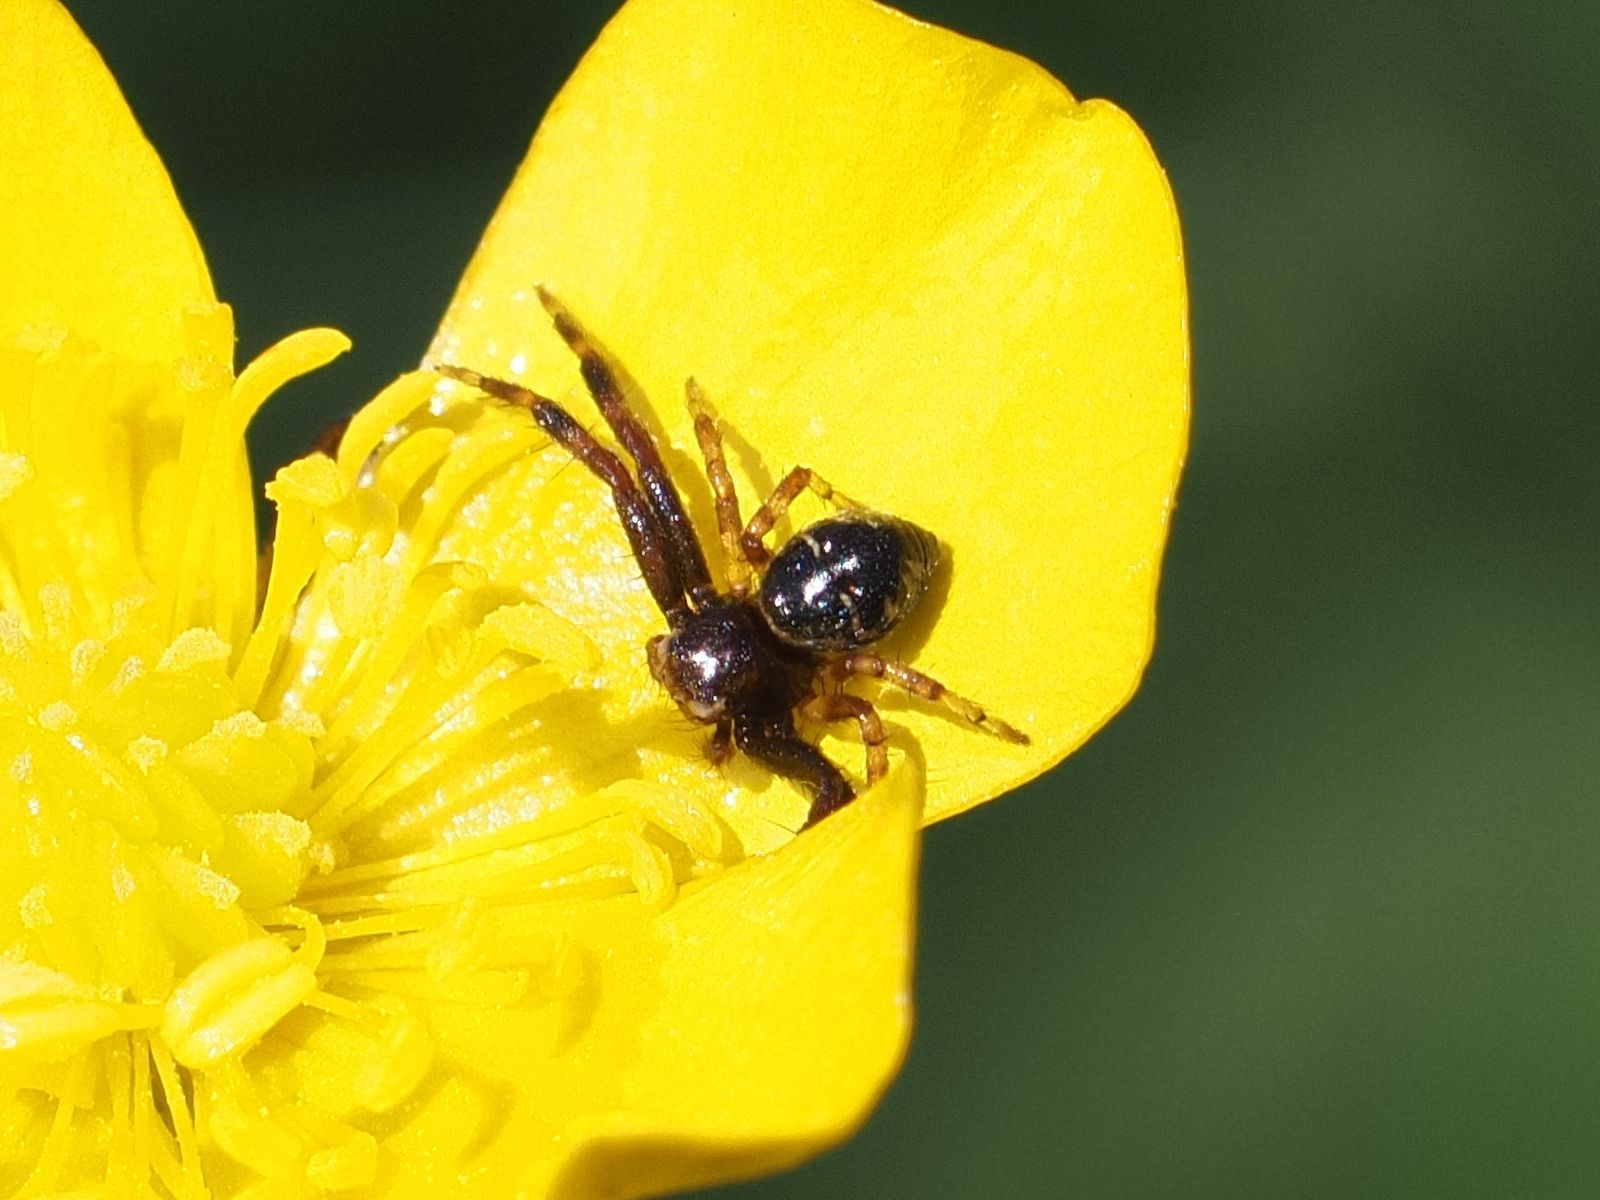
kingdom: Animalia
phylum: Arthropoda
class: Arachnida
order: Araneae
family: Thomisidae
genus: Synema
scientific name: Synema globosum
